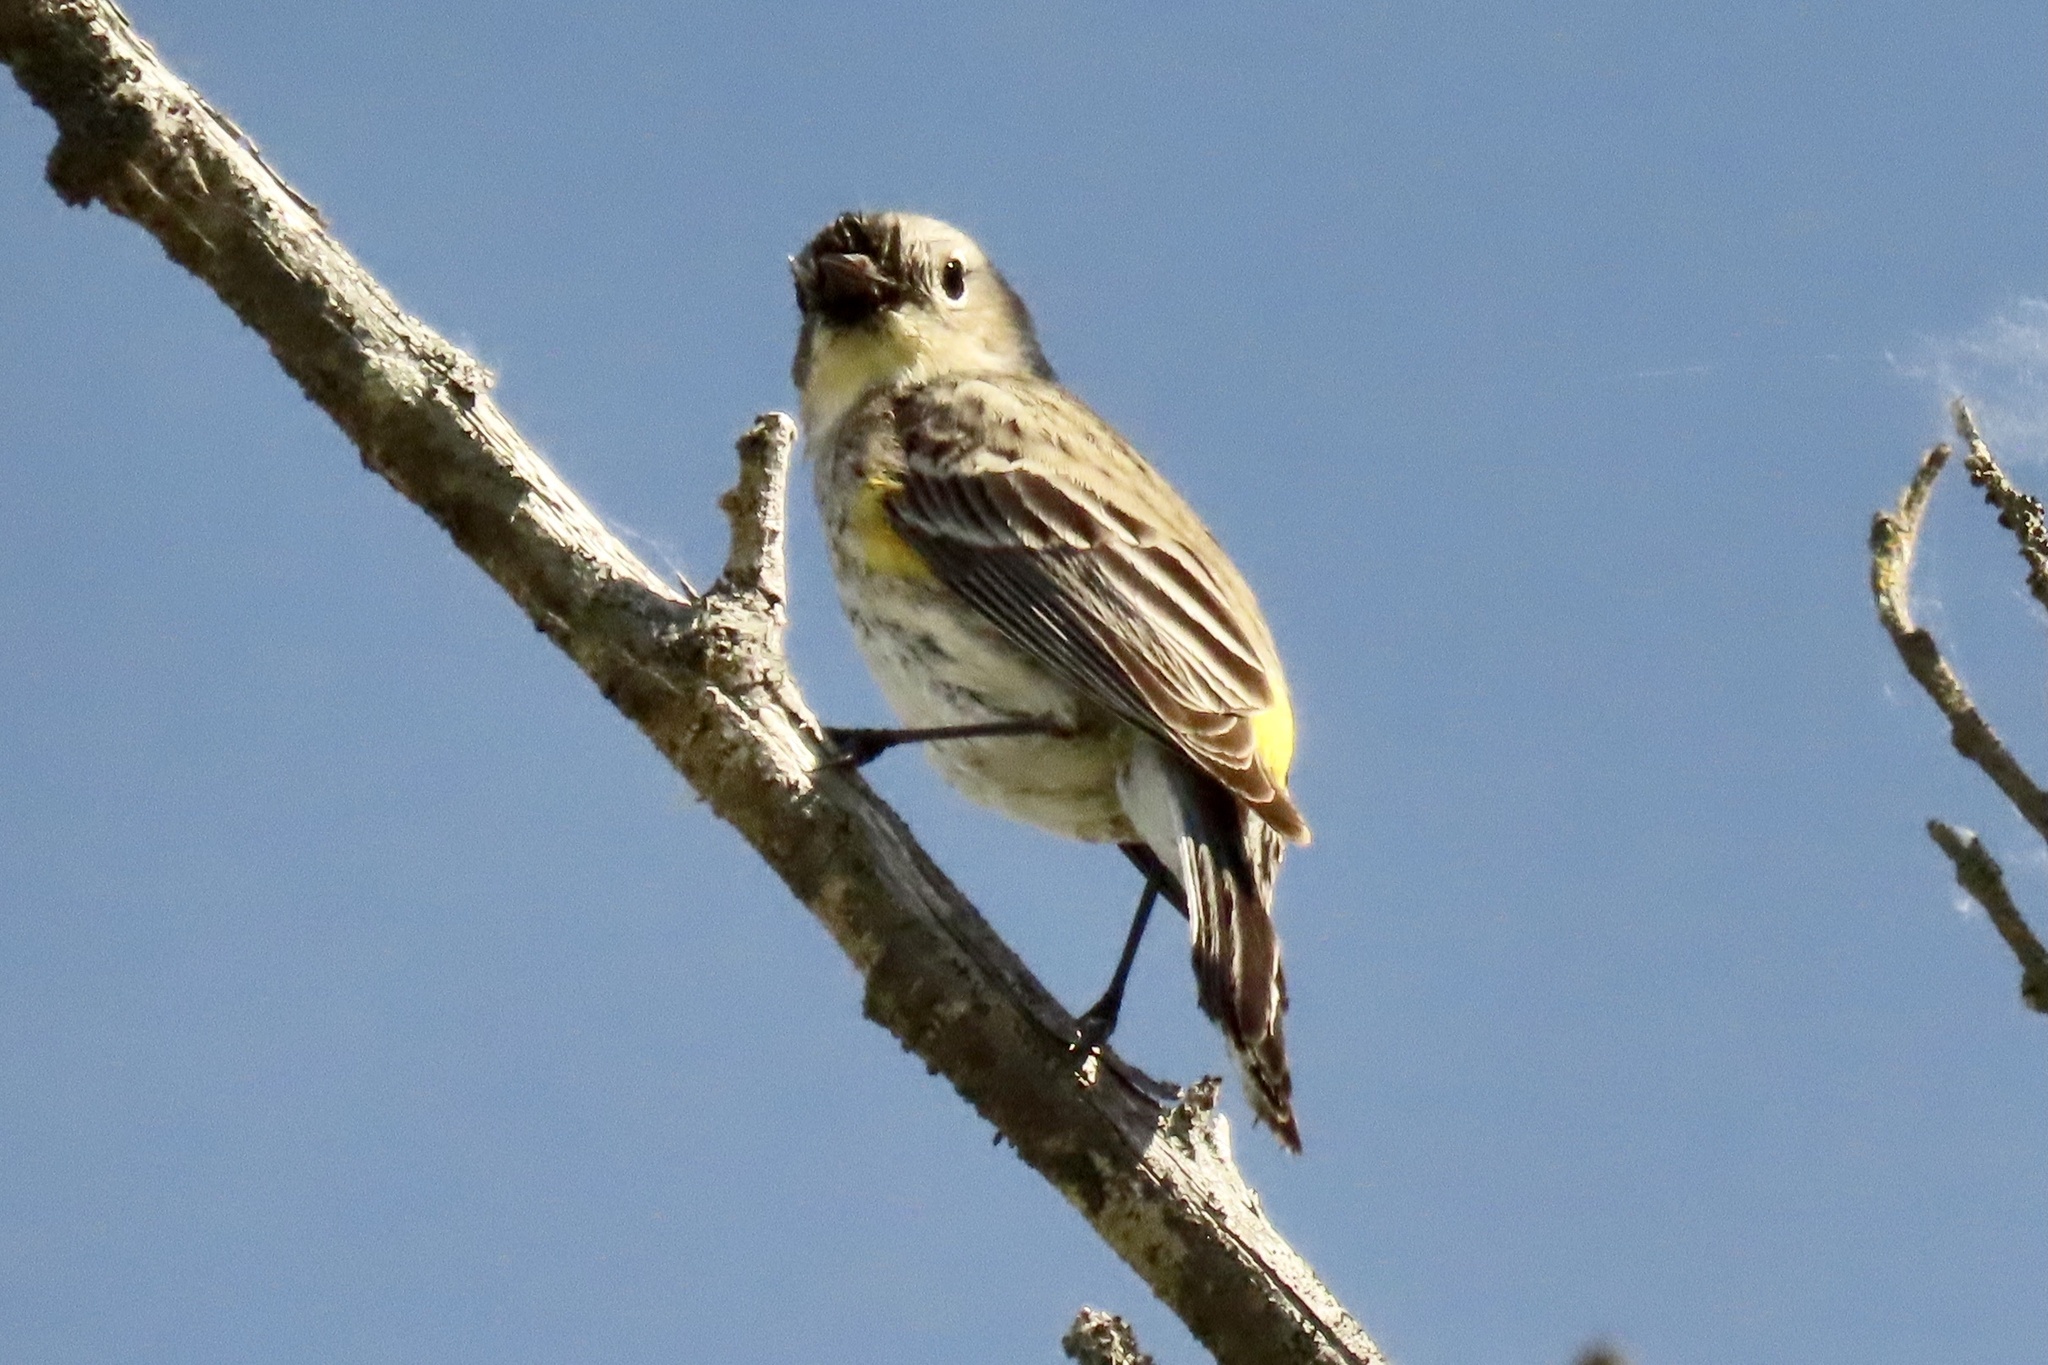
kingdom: Animalia
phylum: Chordata
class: Aves
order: Passeriformes
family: Parulidae
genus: Setophaga
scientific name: Setophaga coronata
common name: Myrtle warbler
